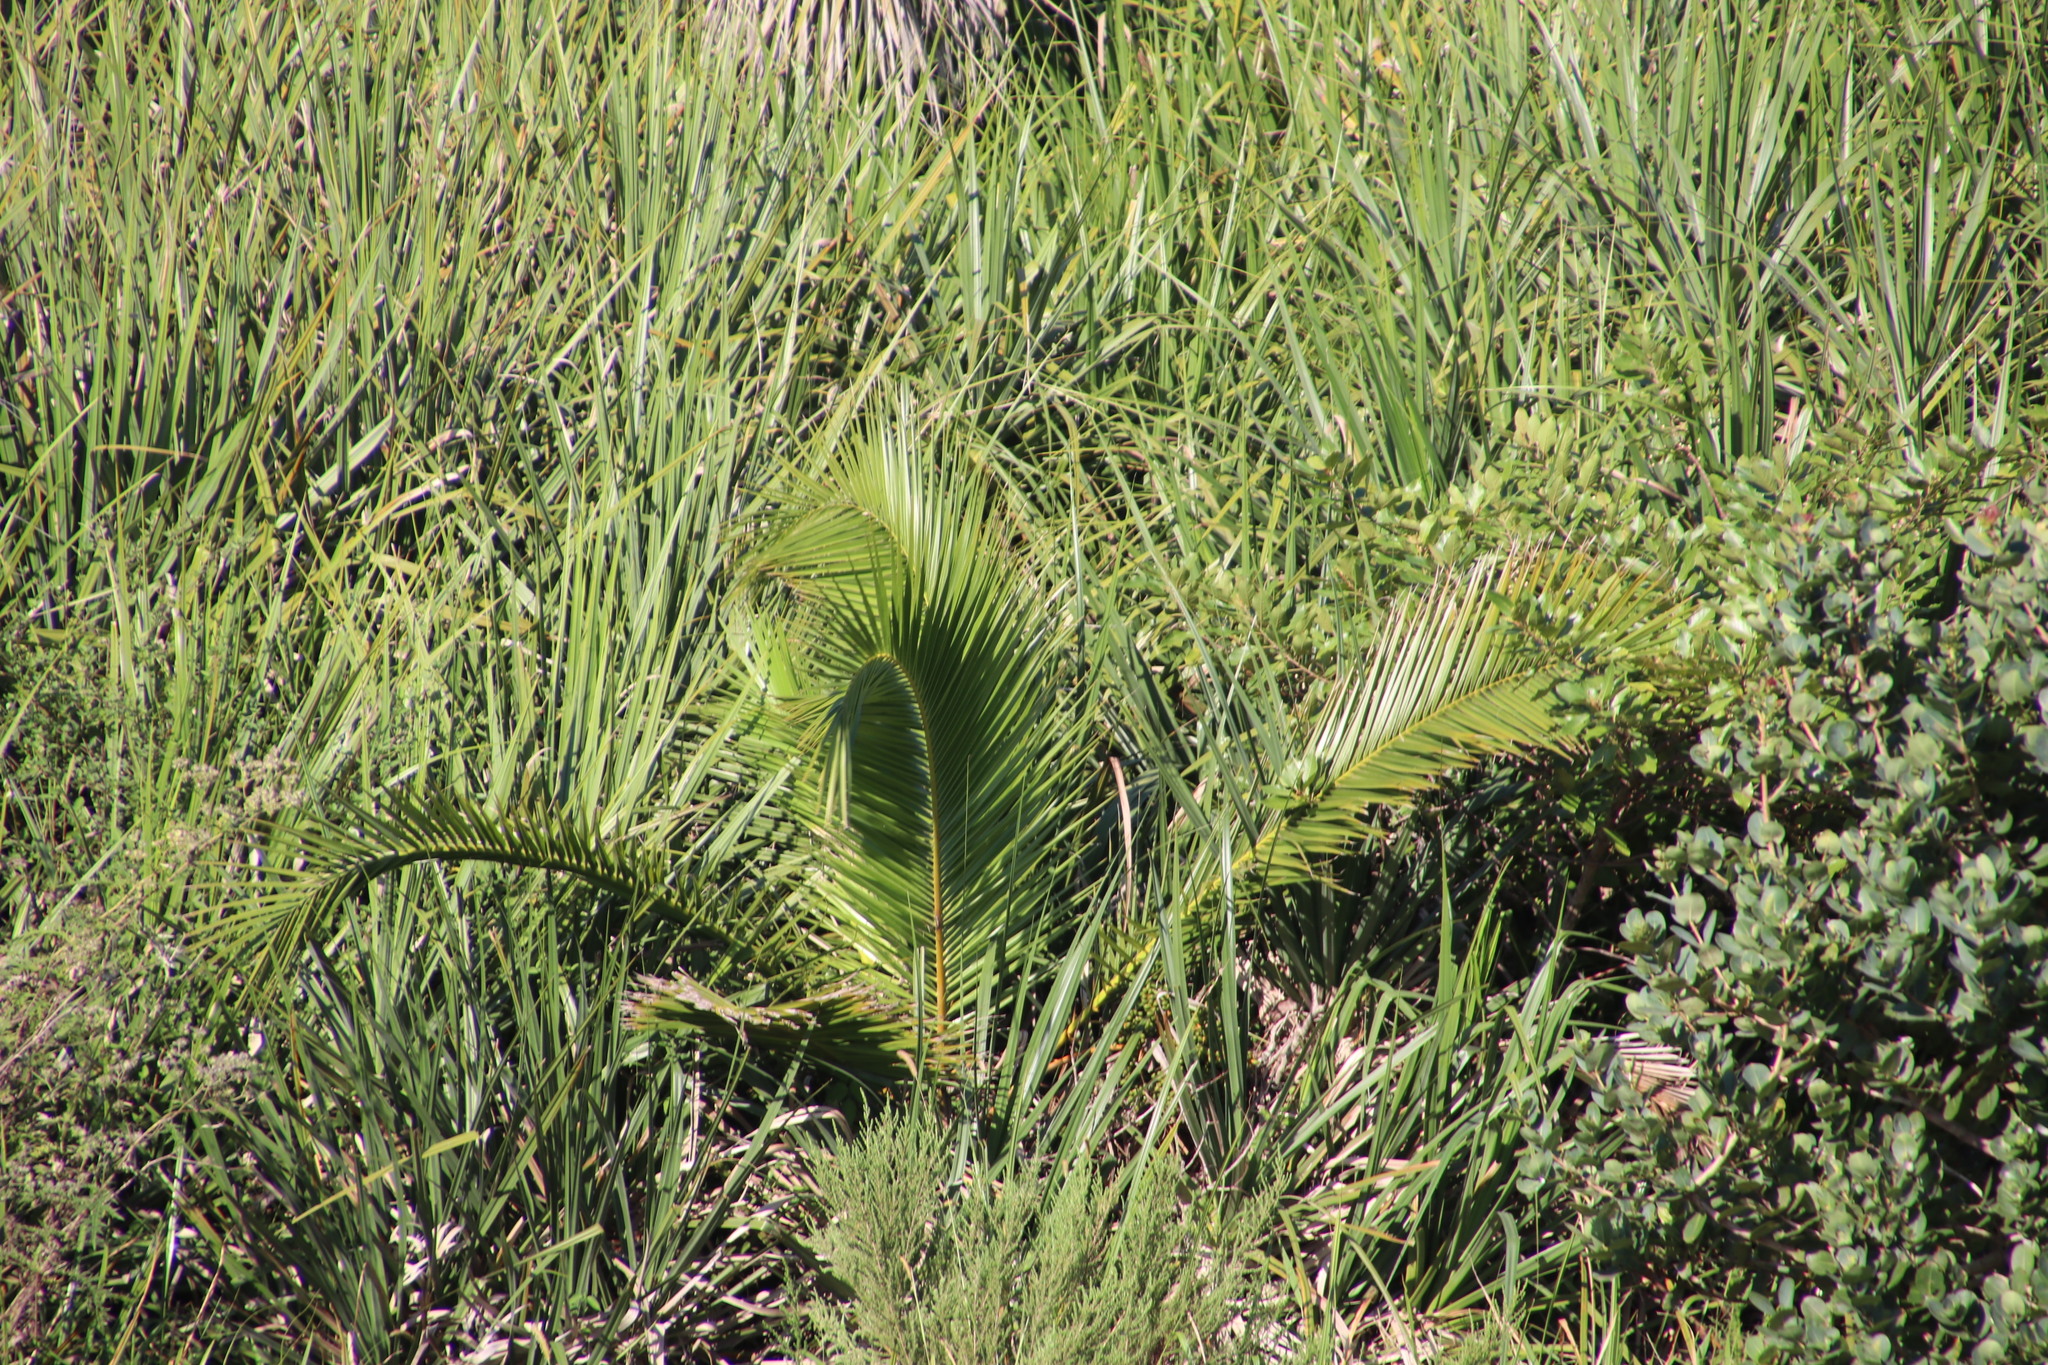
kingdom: Plantae
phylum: Tracheophyta
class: Liliopsida
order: Arecales
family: Arecaceae
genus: Phoenix
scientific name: Phoenix reclinata
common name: Senegal date palm
